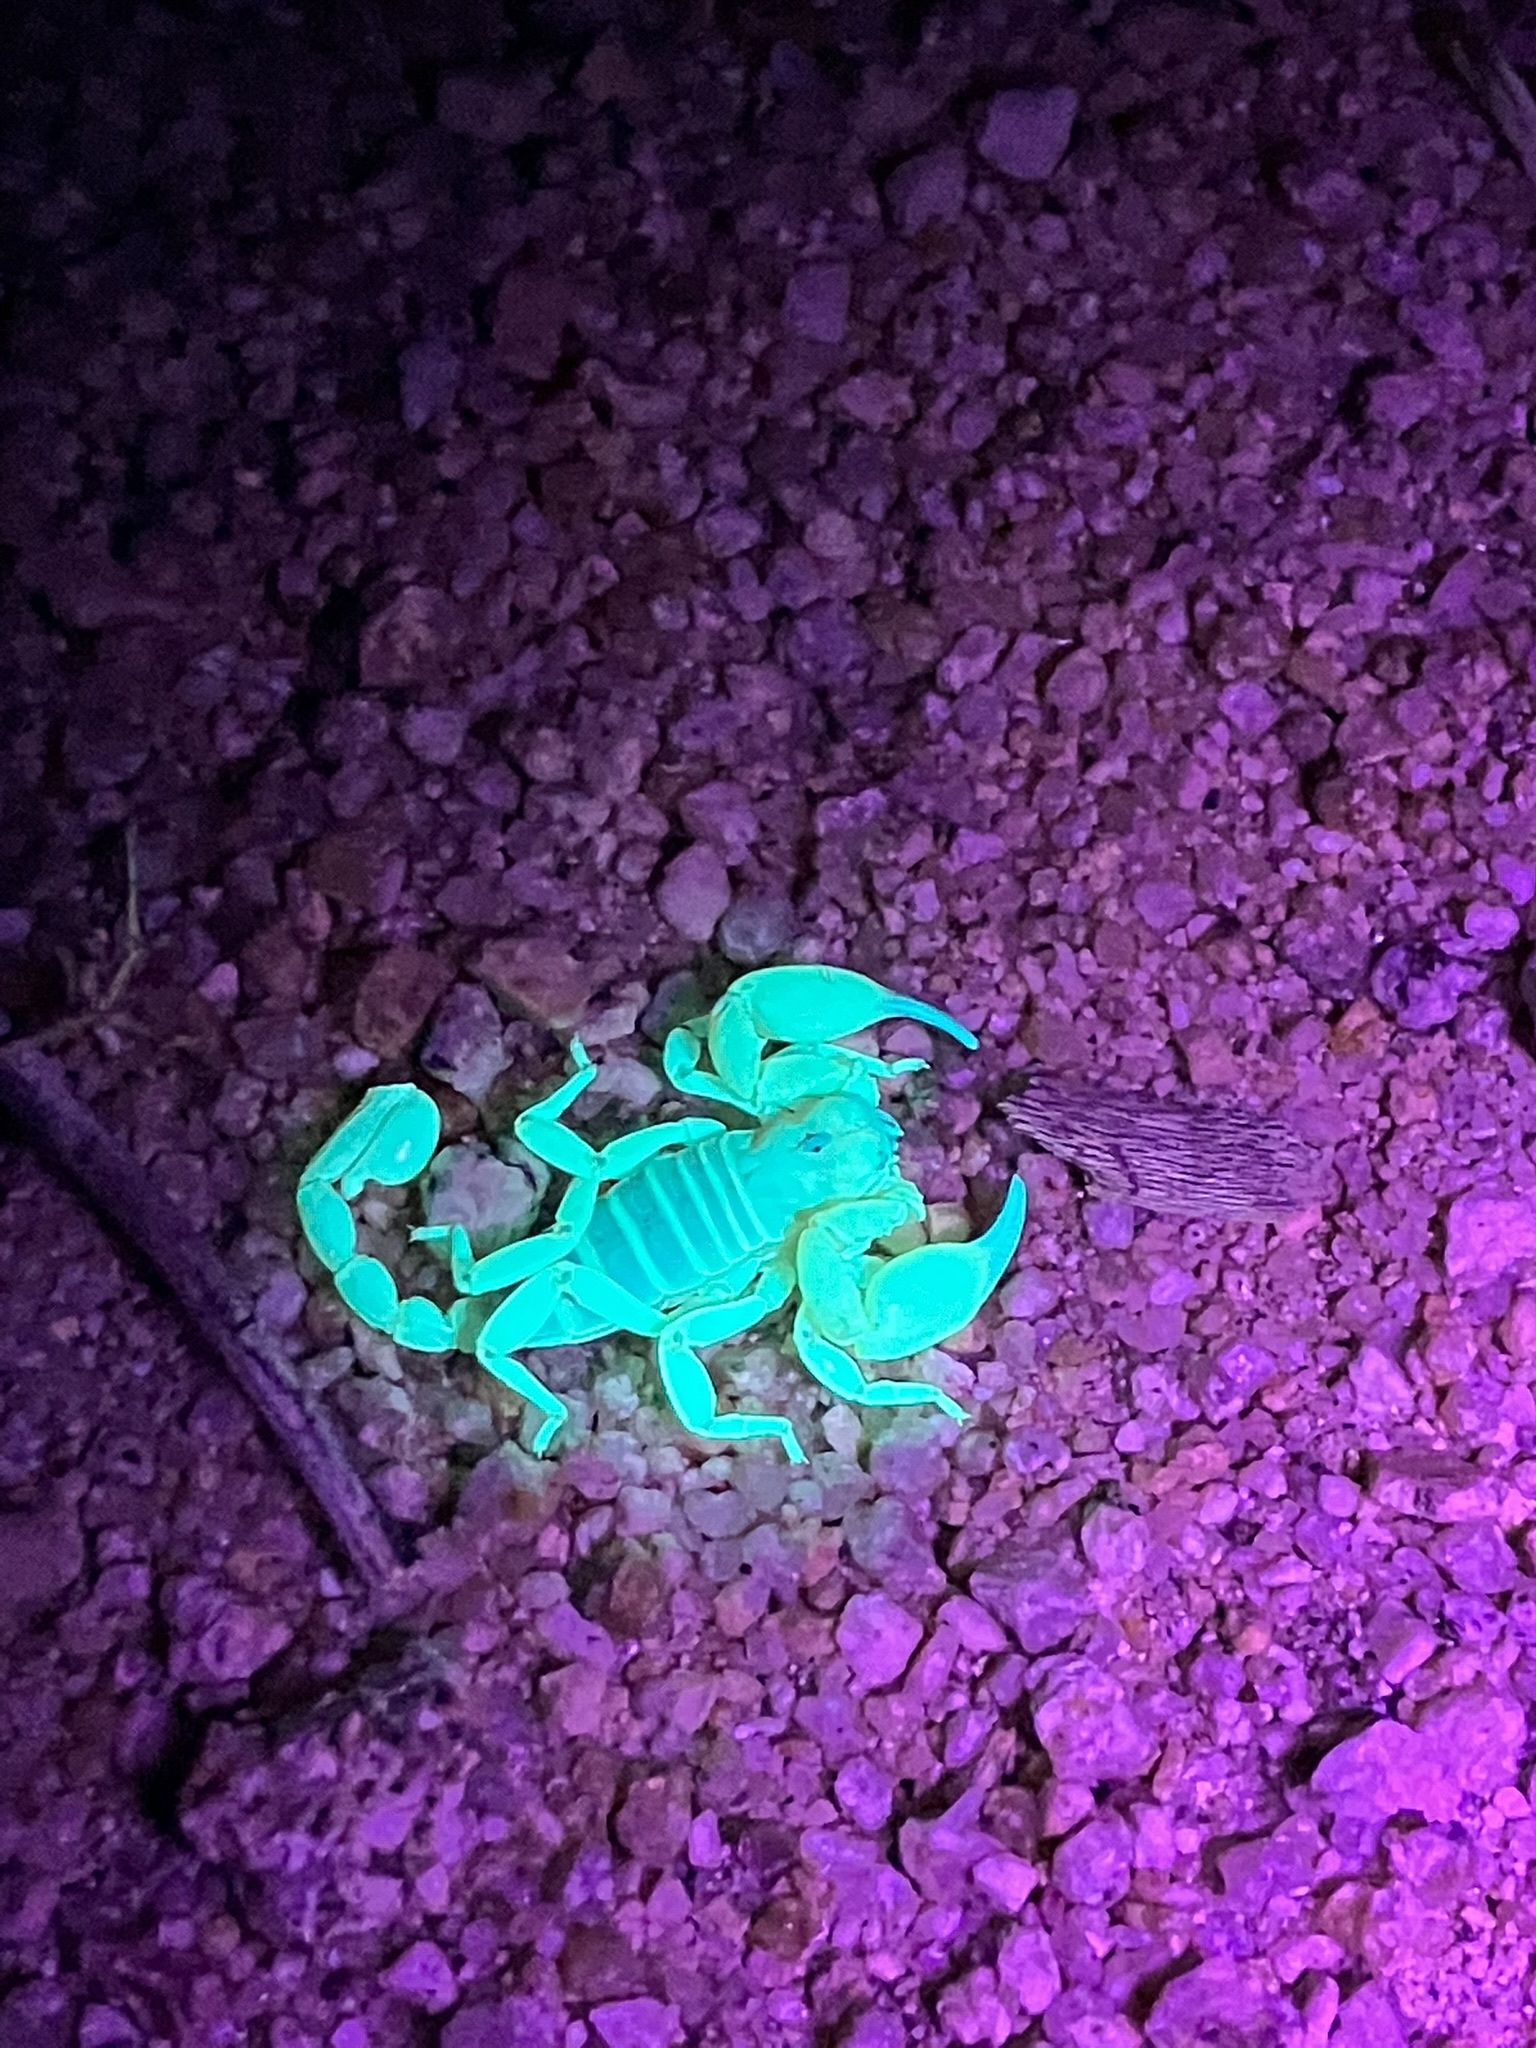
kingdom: Animalia
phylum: Arthropoda
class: Arachnida
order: Scorpiones
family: Chactidae
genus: Anuroctonus
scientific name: Anuroctonus phaiodactylus
